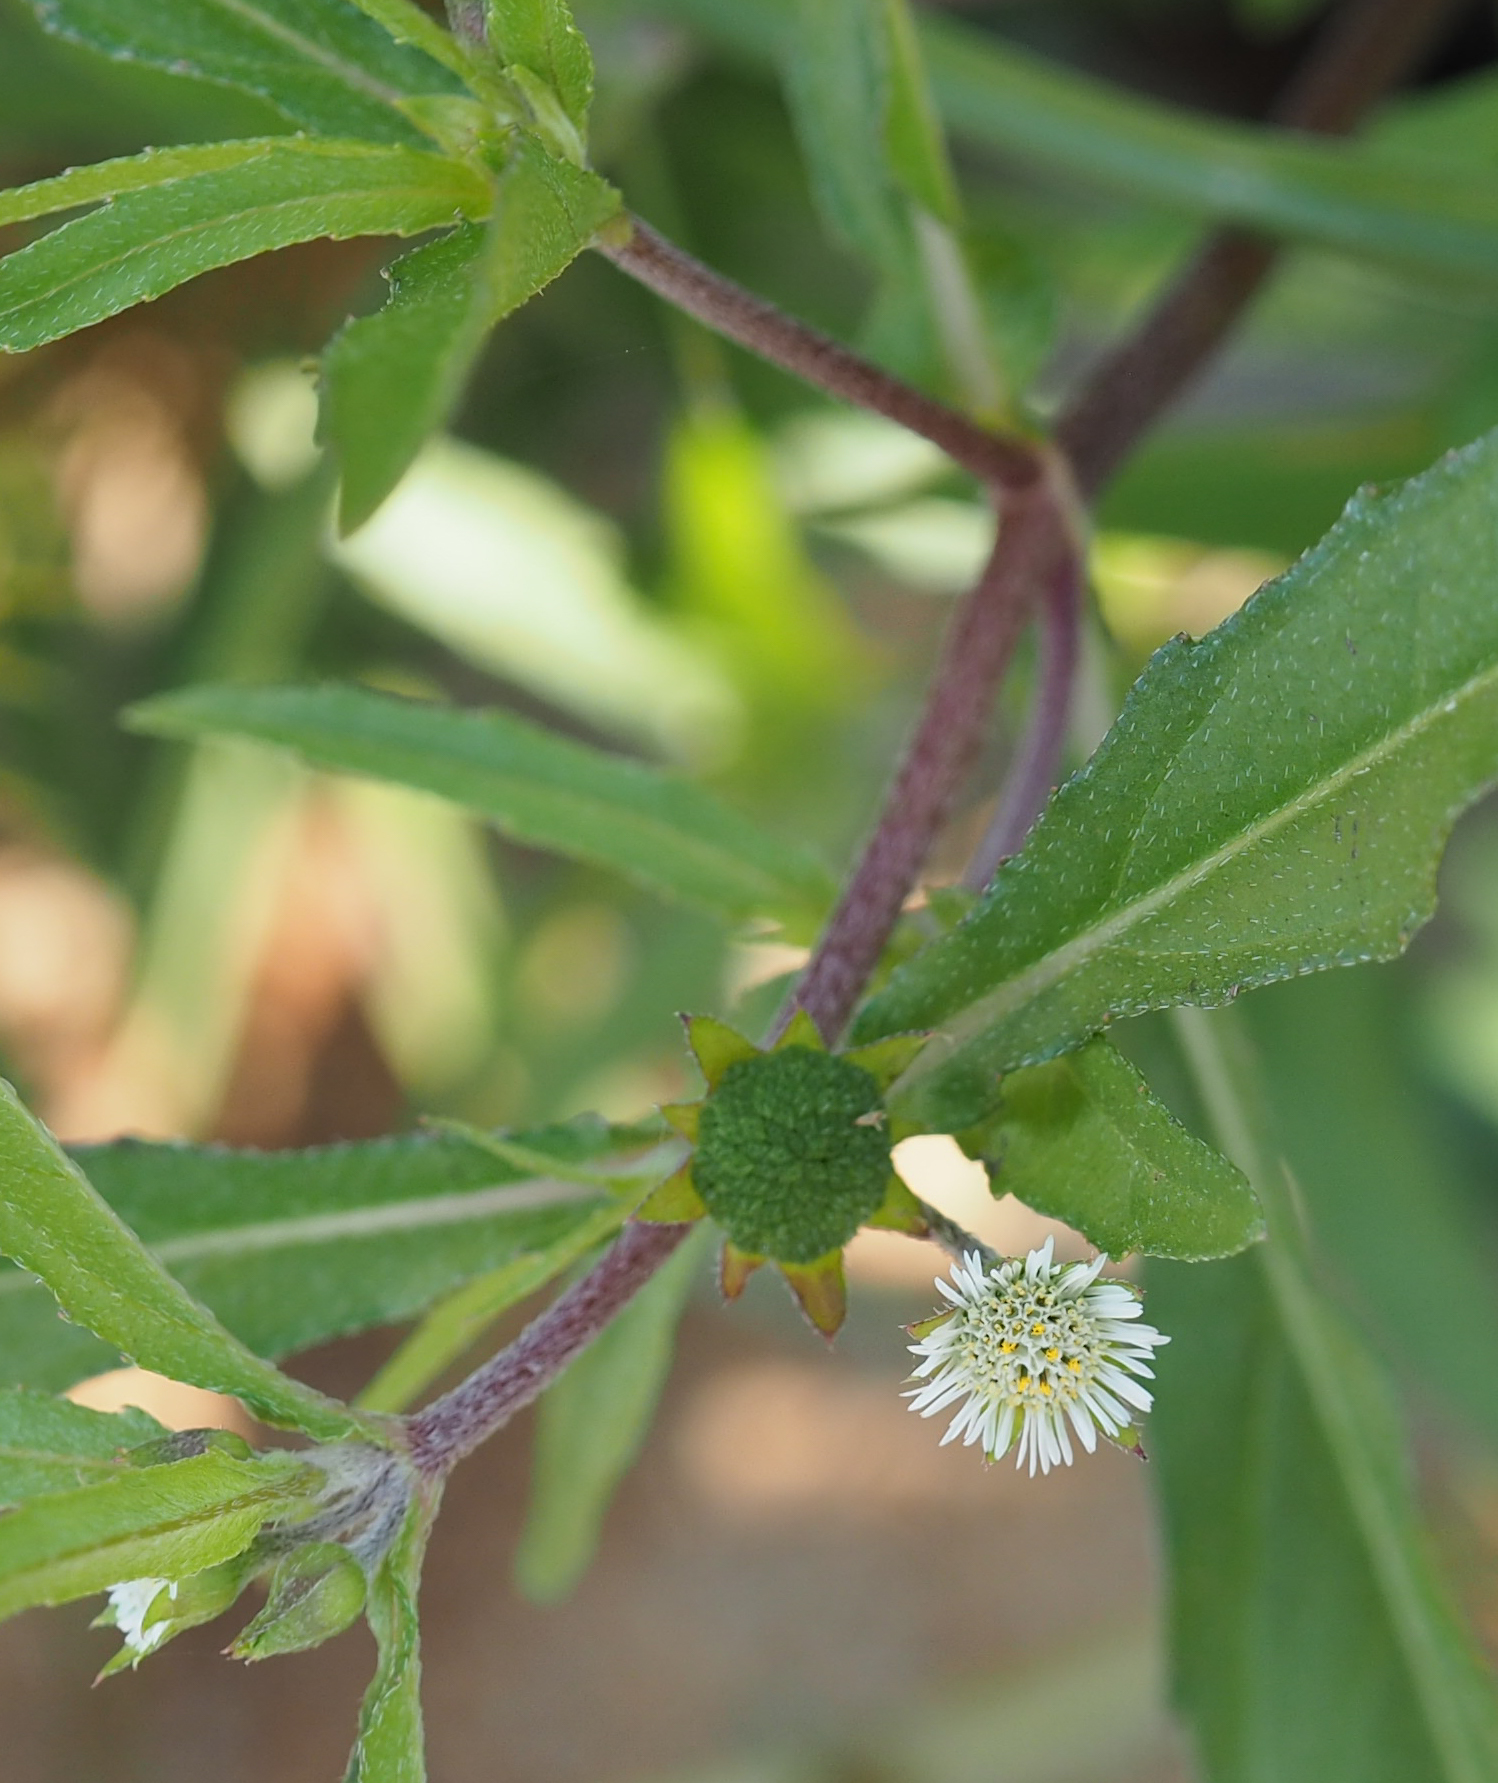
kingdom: Plantae
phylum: Tracheophyta
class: Magnoliopsida
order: Asterales
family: Asteraceae
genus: Eclipta
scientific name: Eclipta prostrata
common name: False daisy
